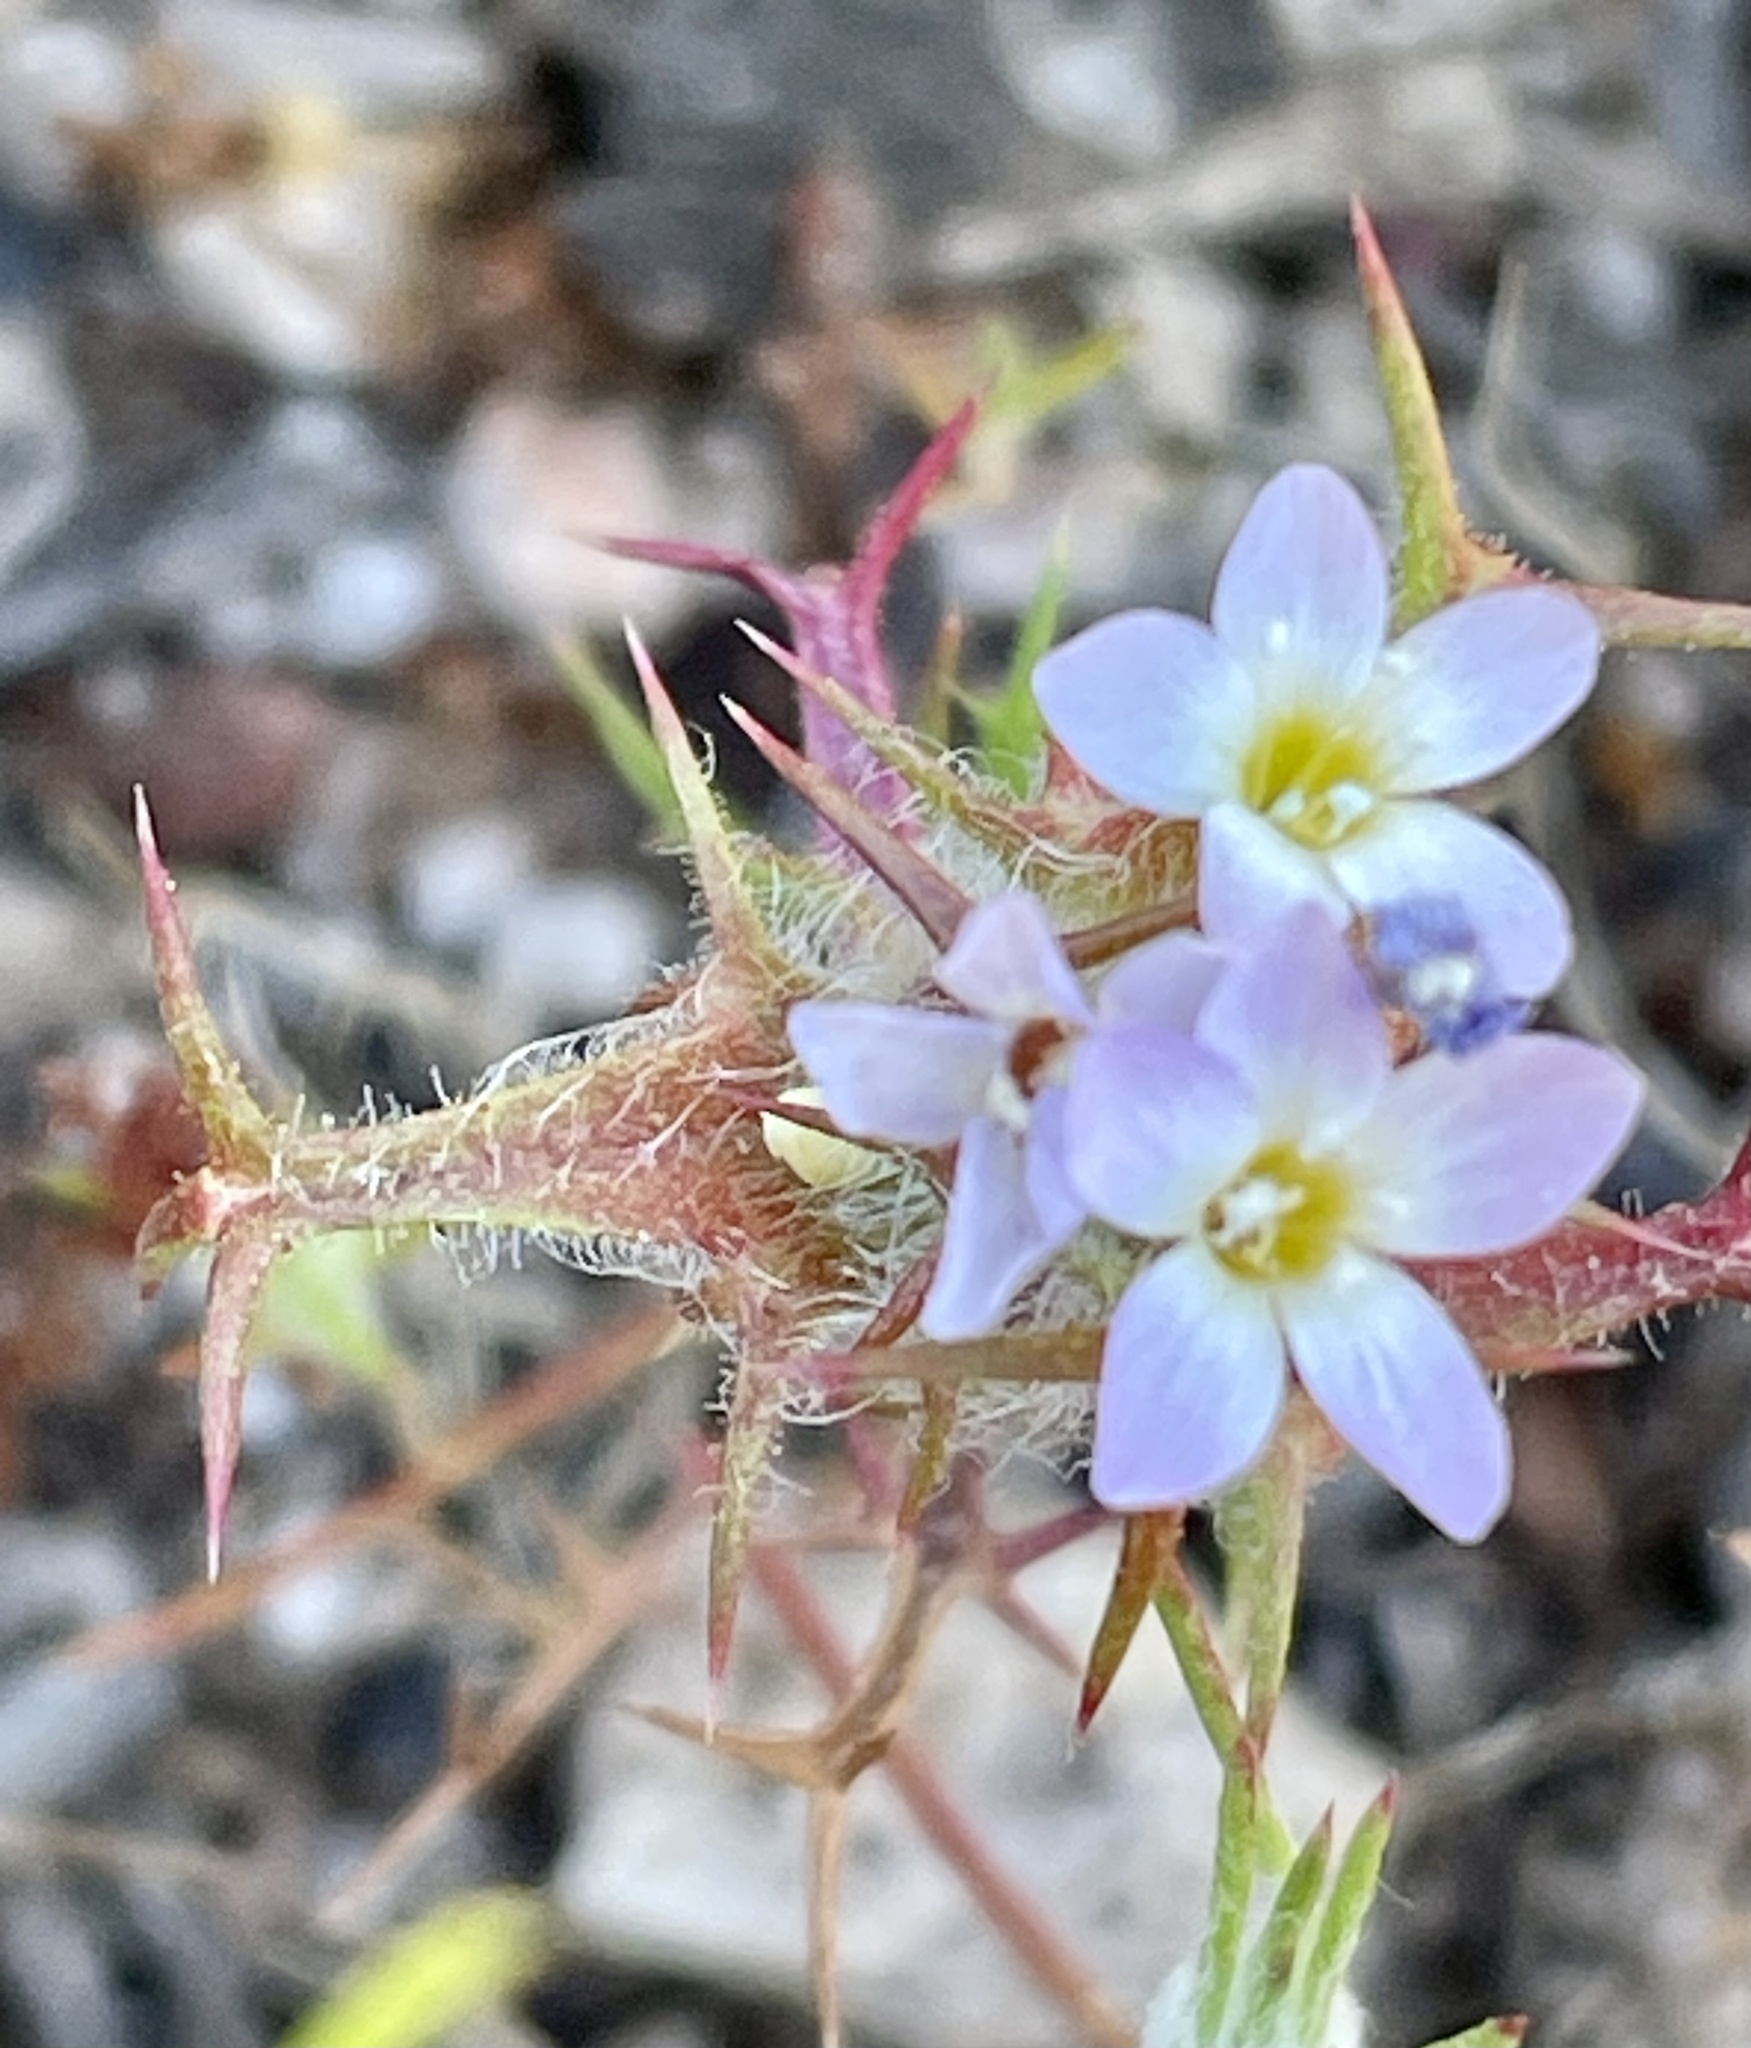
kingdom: Plantae
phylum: Tracheophyta
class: Magnoliopsida
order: Ericales
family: Polemoniaceae
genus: Navarretia
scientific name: Navarretia hamata
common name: Hooked navarretia
